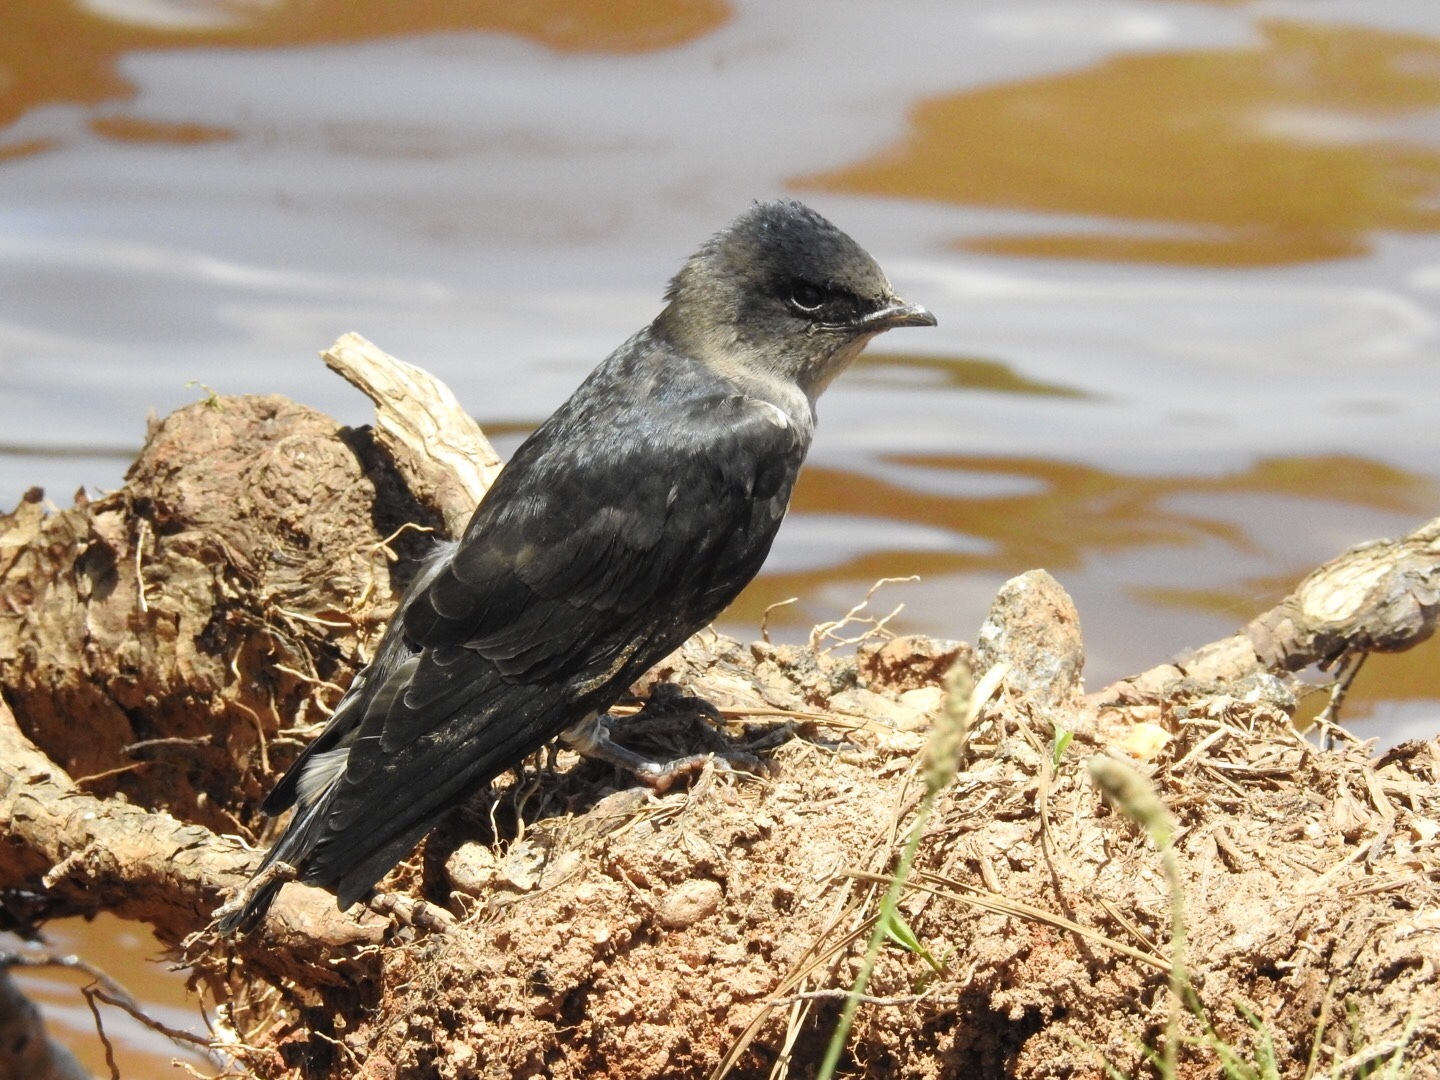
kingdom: Animalia
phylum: Chordata
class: Aves
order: Passeriformes
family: Hirundinidae
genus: Progne
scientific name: Progne subis
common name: Purple martin
